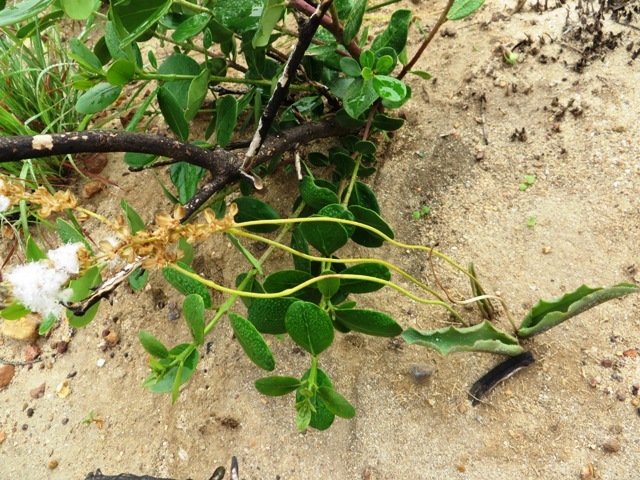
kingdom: Plantae
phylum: Tracheophyta
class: Liliopsida
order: Asparagales
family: Asparagaceae
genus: Eriospermum
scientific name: Eriospermum lanceifolium
